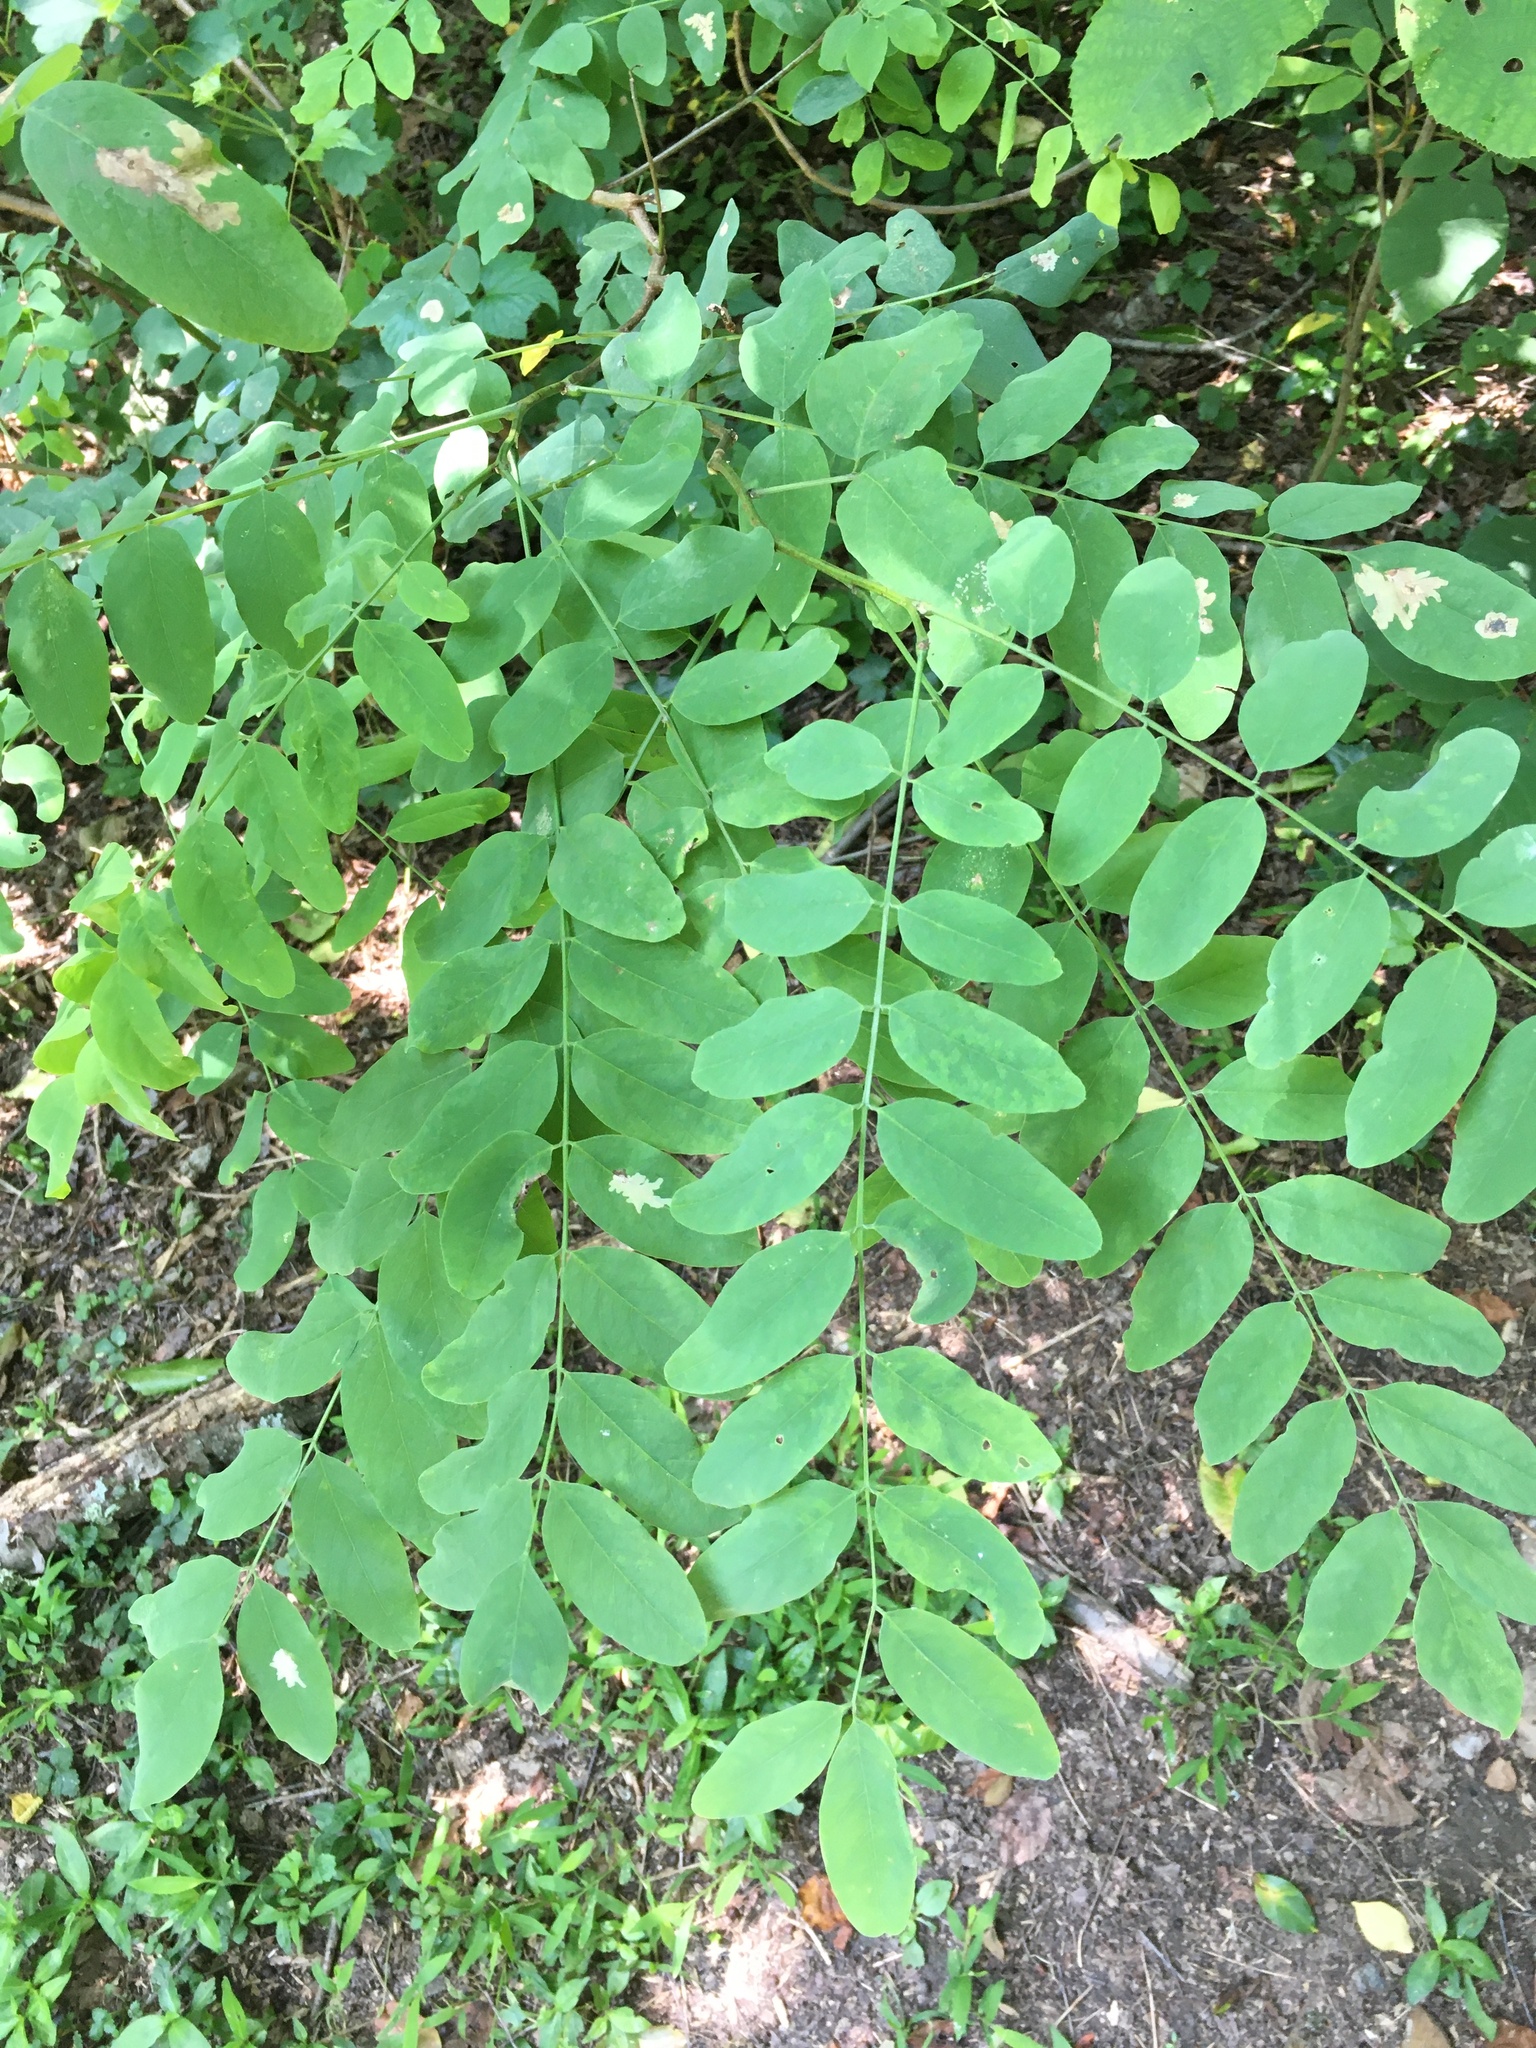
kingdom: Plantae
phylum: Tracheophyta
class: Magnoliopsida
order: Fabales
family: Fabaceae
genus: Robinia
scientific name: Robinia pseudoacacia
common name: Black locust
